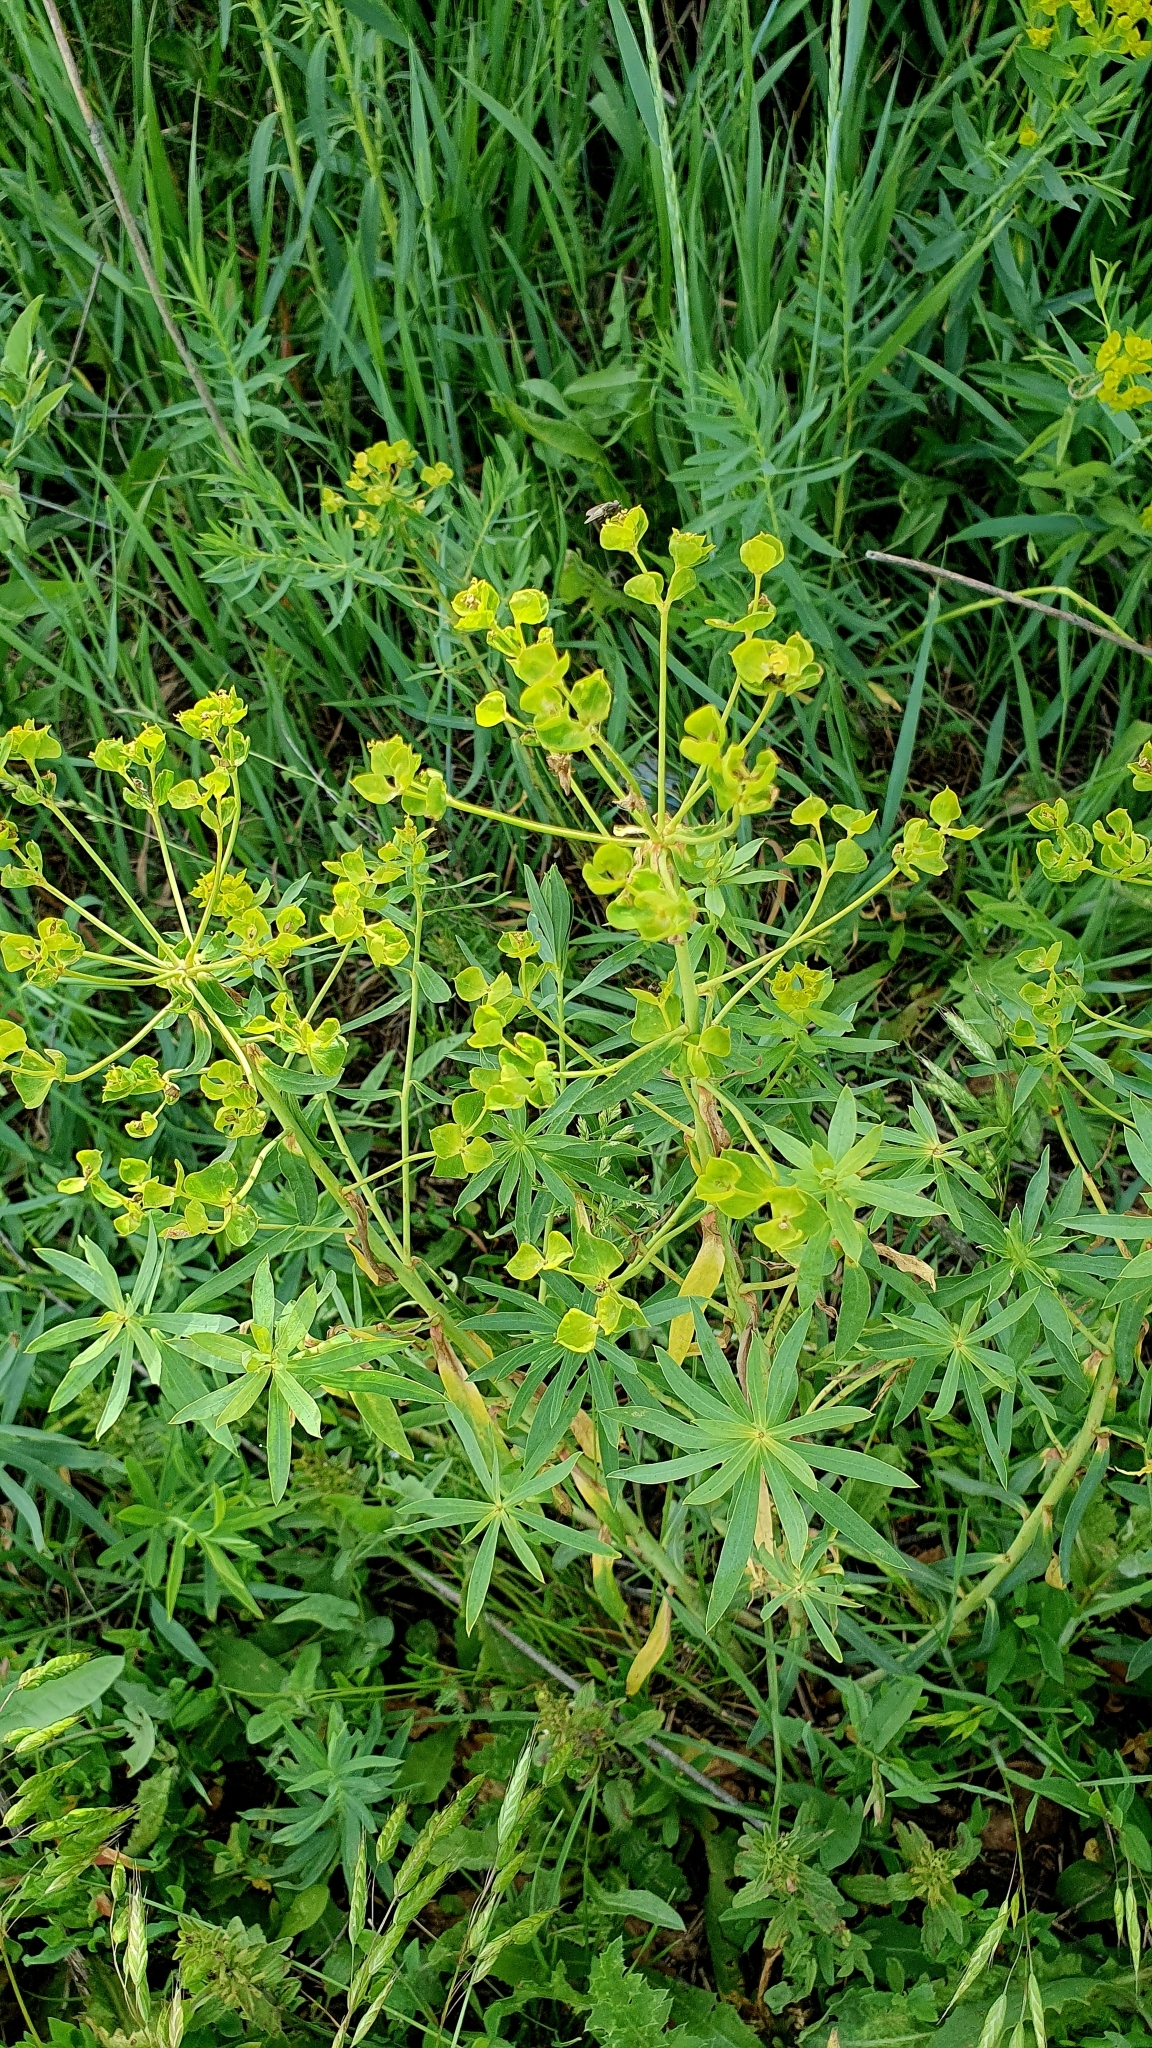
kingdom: Plantae
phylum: Tracheophyta
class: Magnoliopsida
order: Malpighiales
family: Euphorbiaceae
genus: Euphorbia
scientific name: Euphorbia virgata
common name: Leafy spurge
